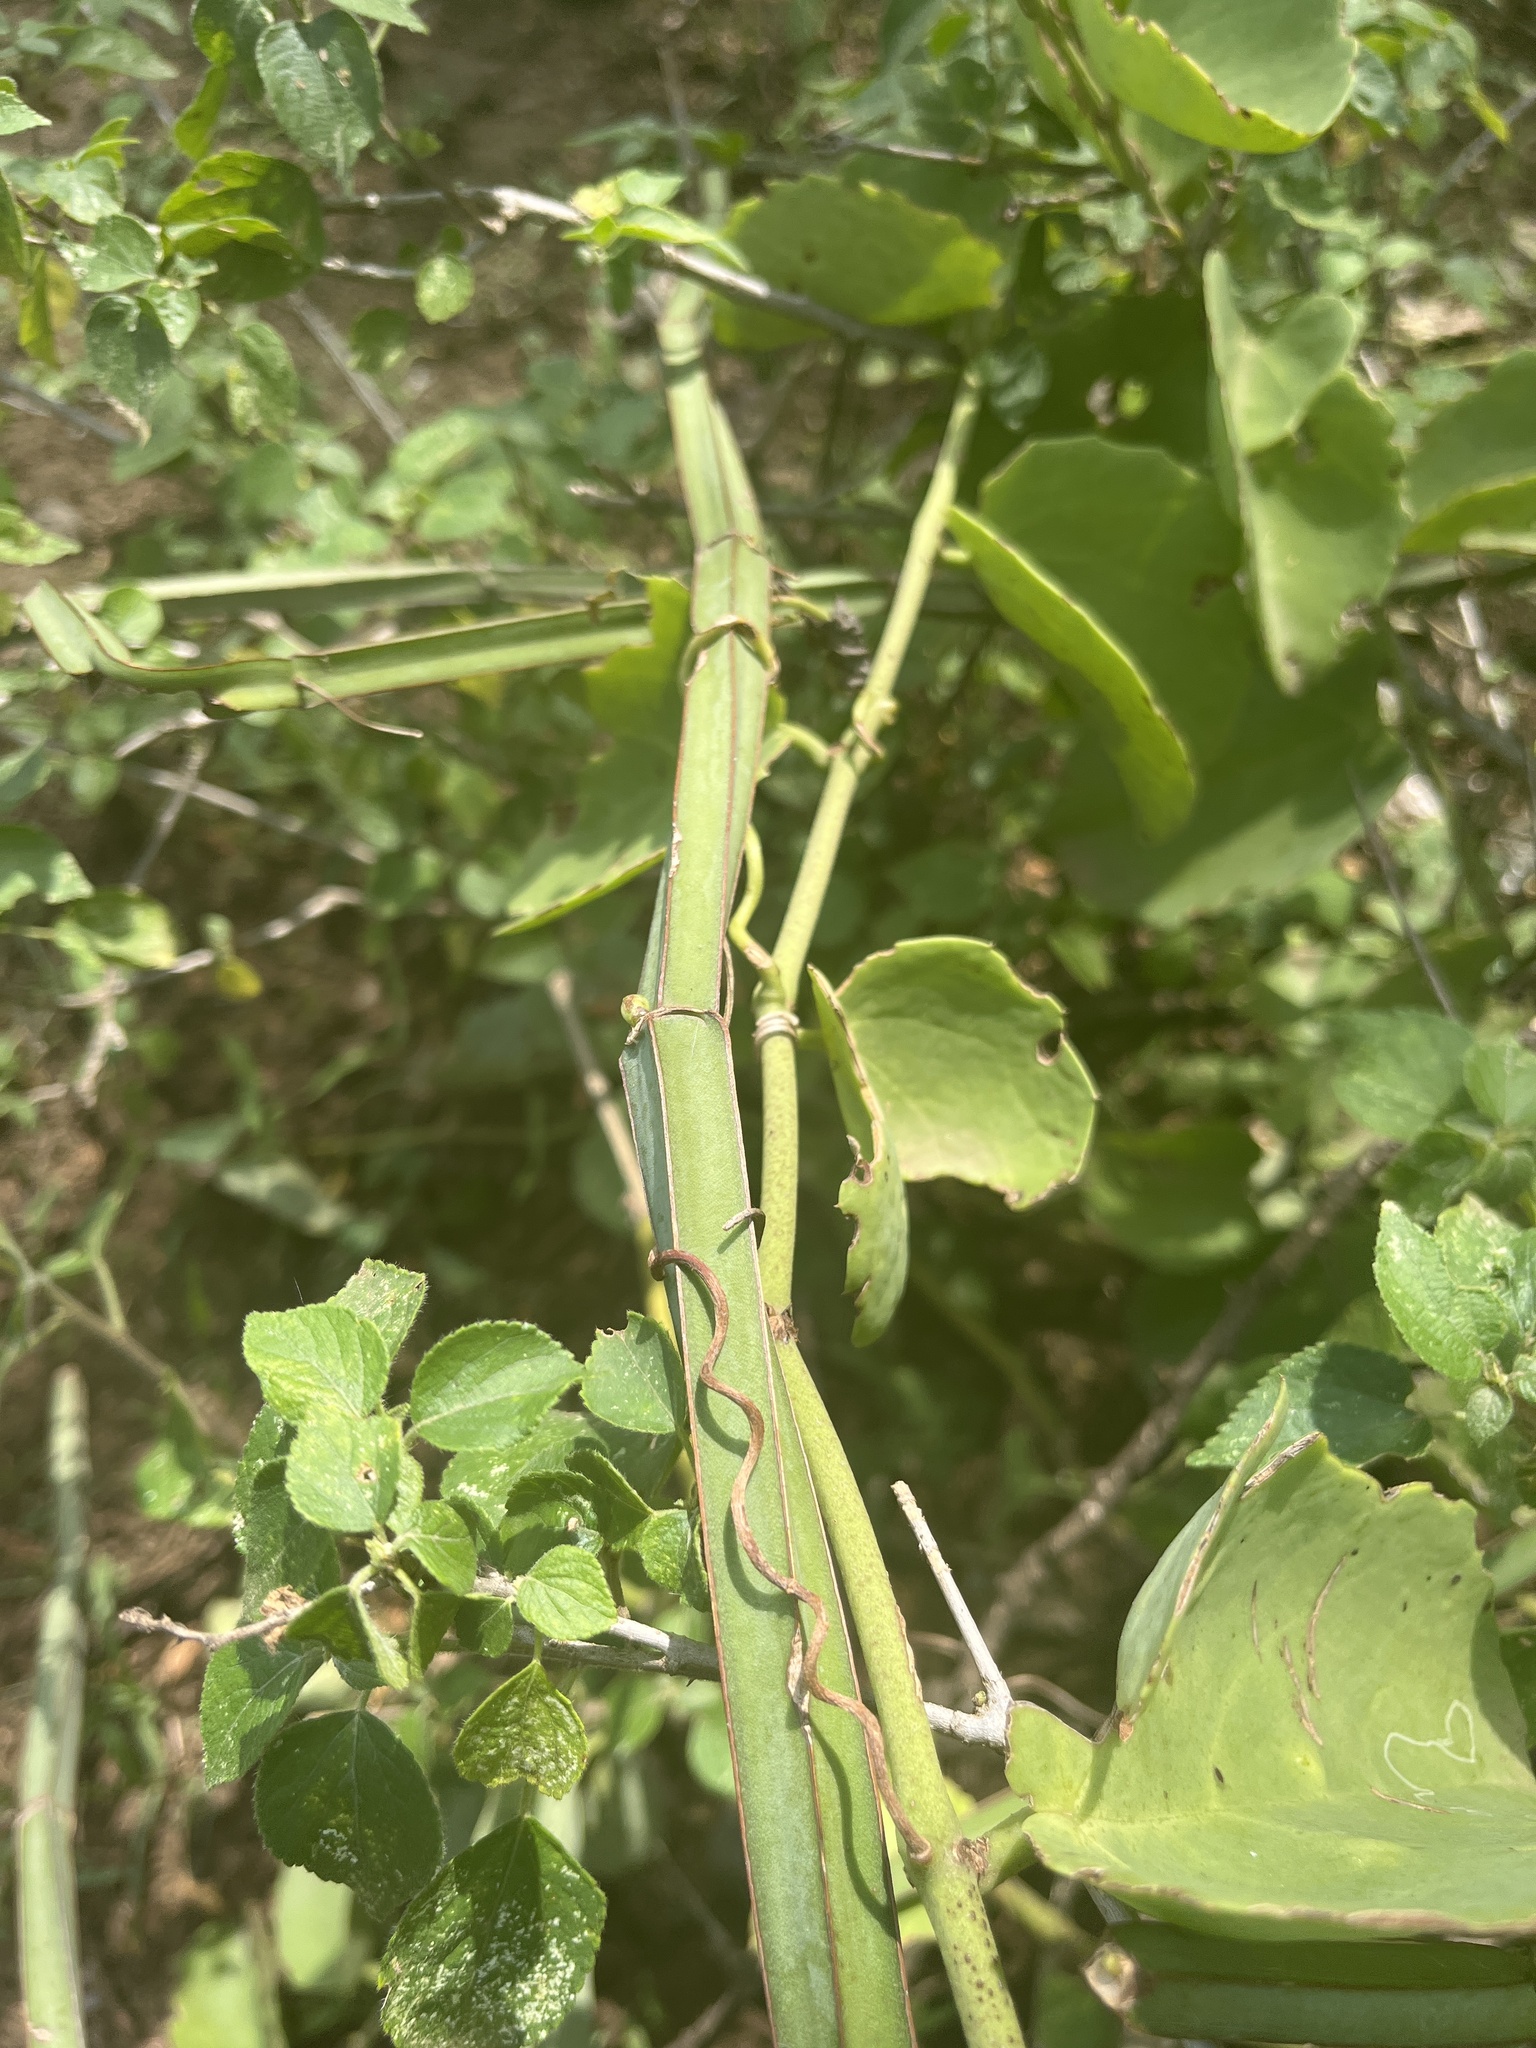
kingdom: Plantae
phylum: Tracheophyta
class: Magnoliopsida
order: Vitales
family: Vitaceae
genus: Cissus
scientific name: Cissus quadrangularis
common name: Veldt-grape
